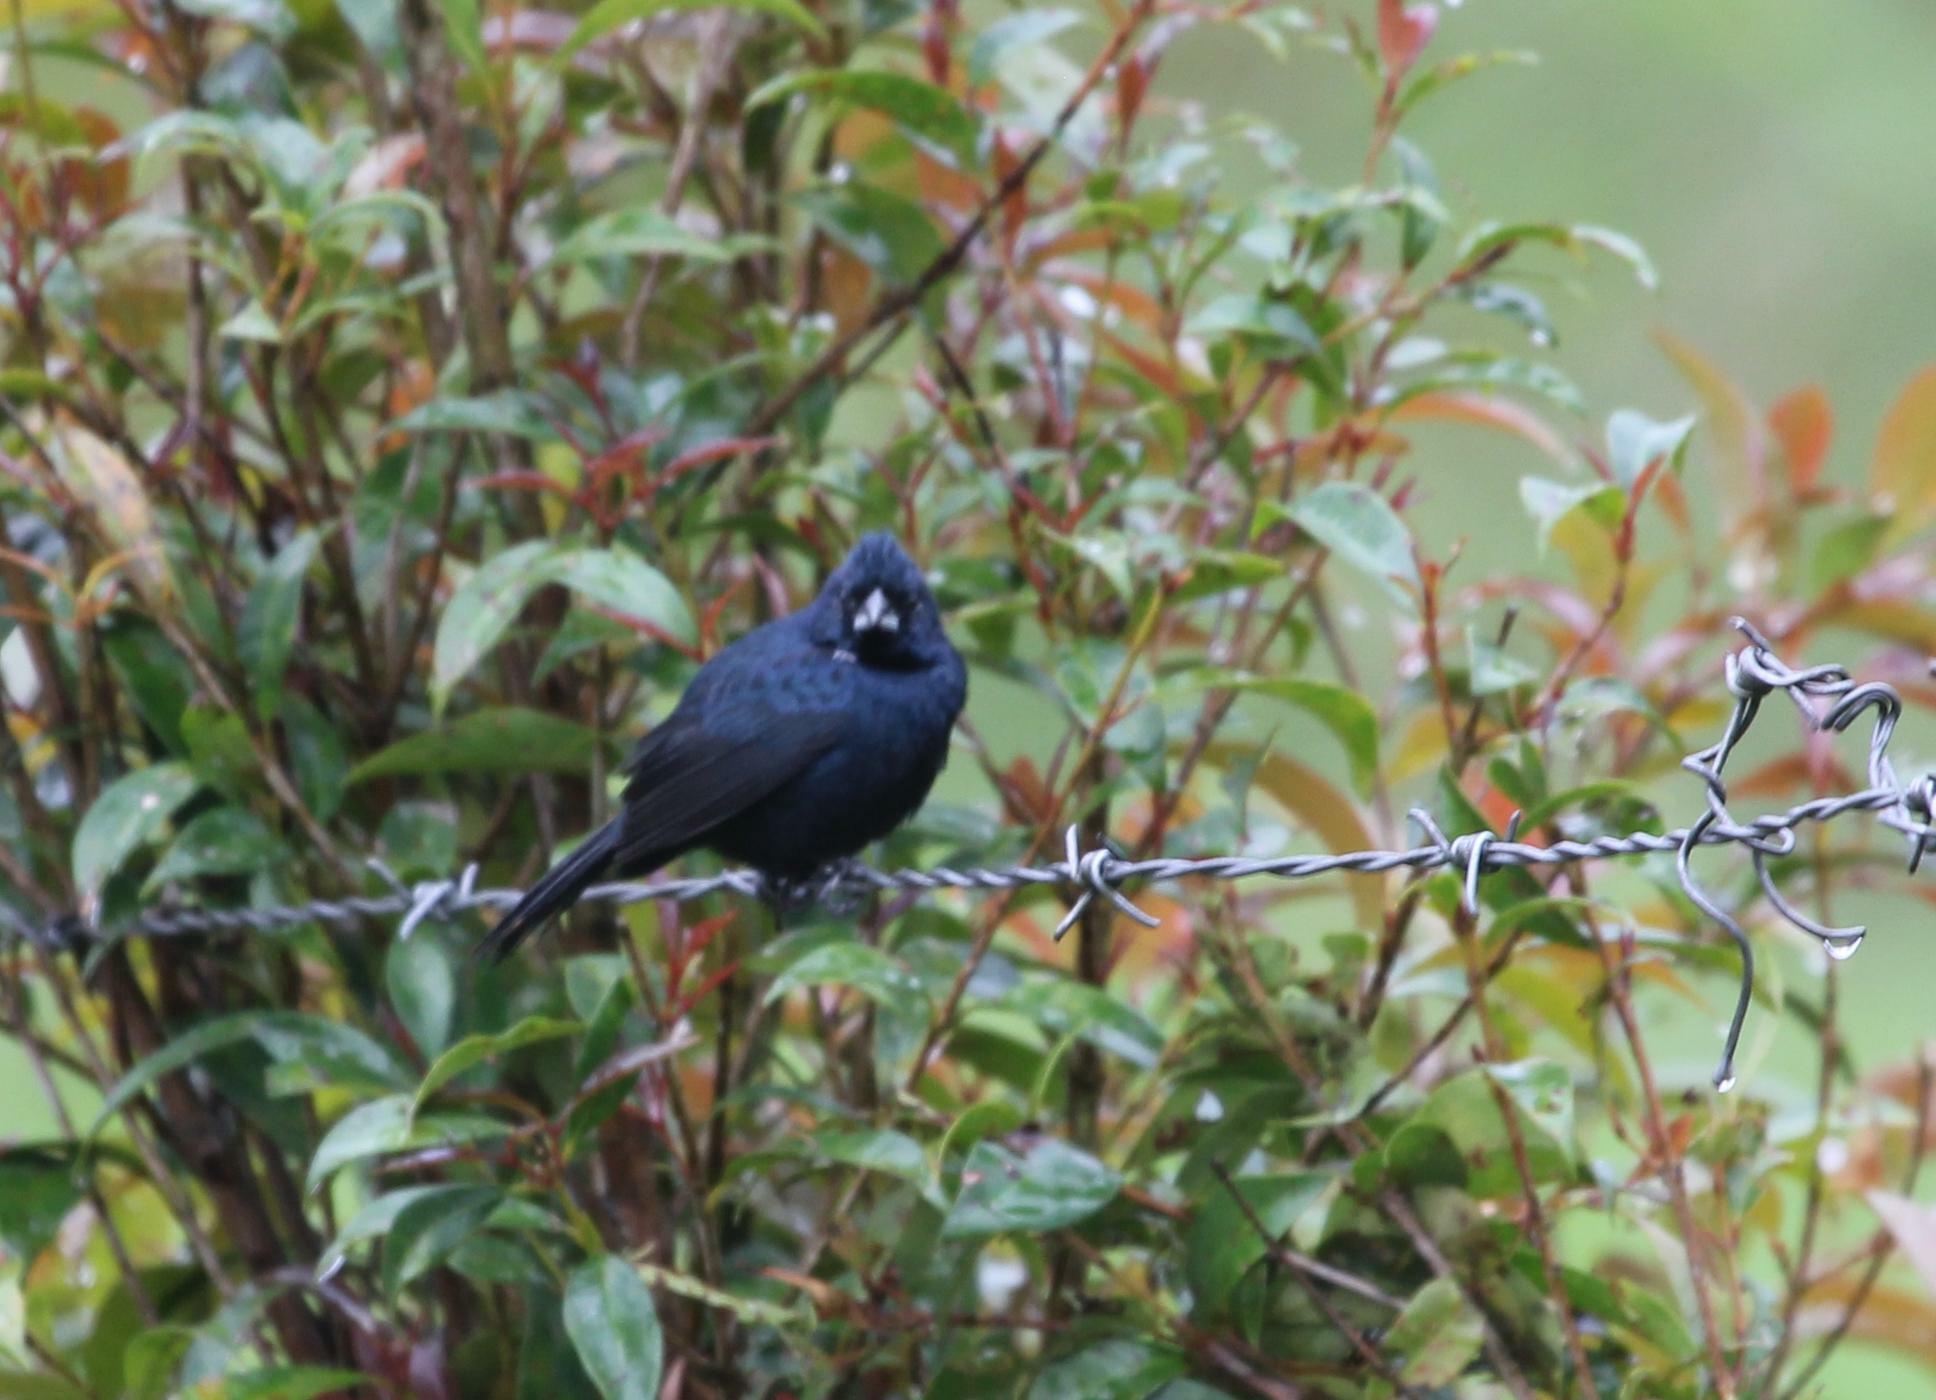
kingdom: Animalia
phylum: Chordata
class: Aves
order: Passeriformes
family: Thraupidae
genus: Volatinia
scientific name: Volatinia jacarina
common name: Blue-black grassquit
